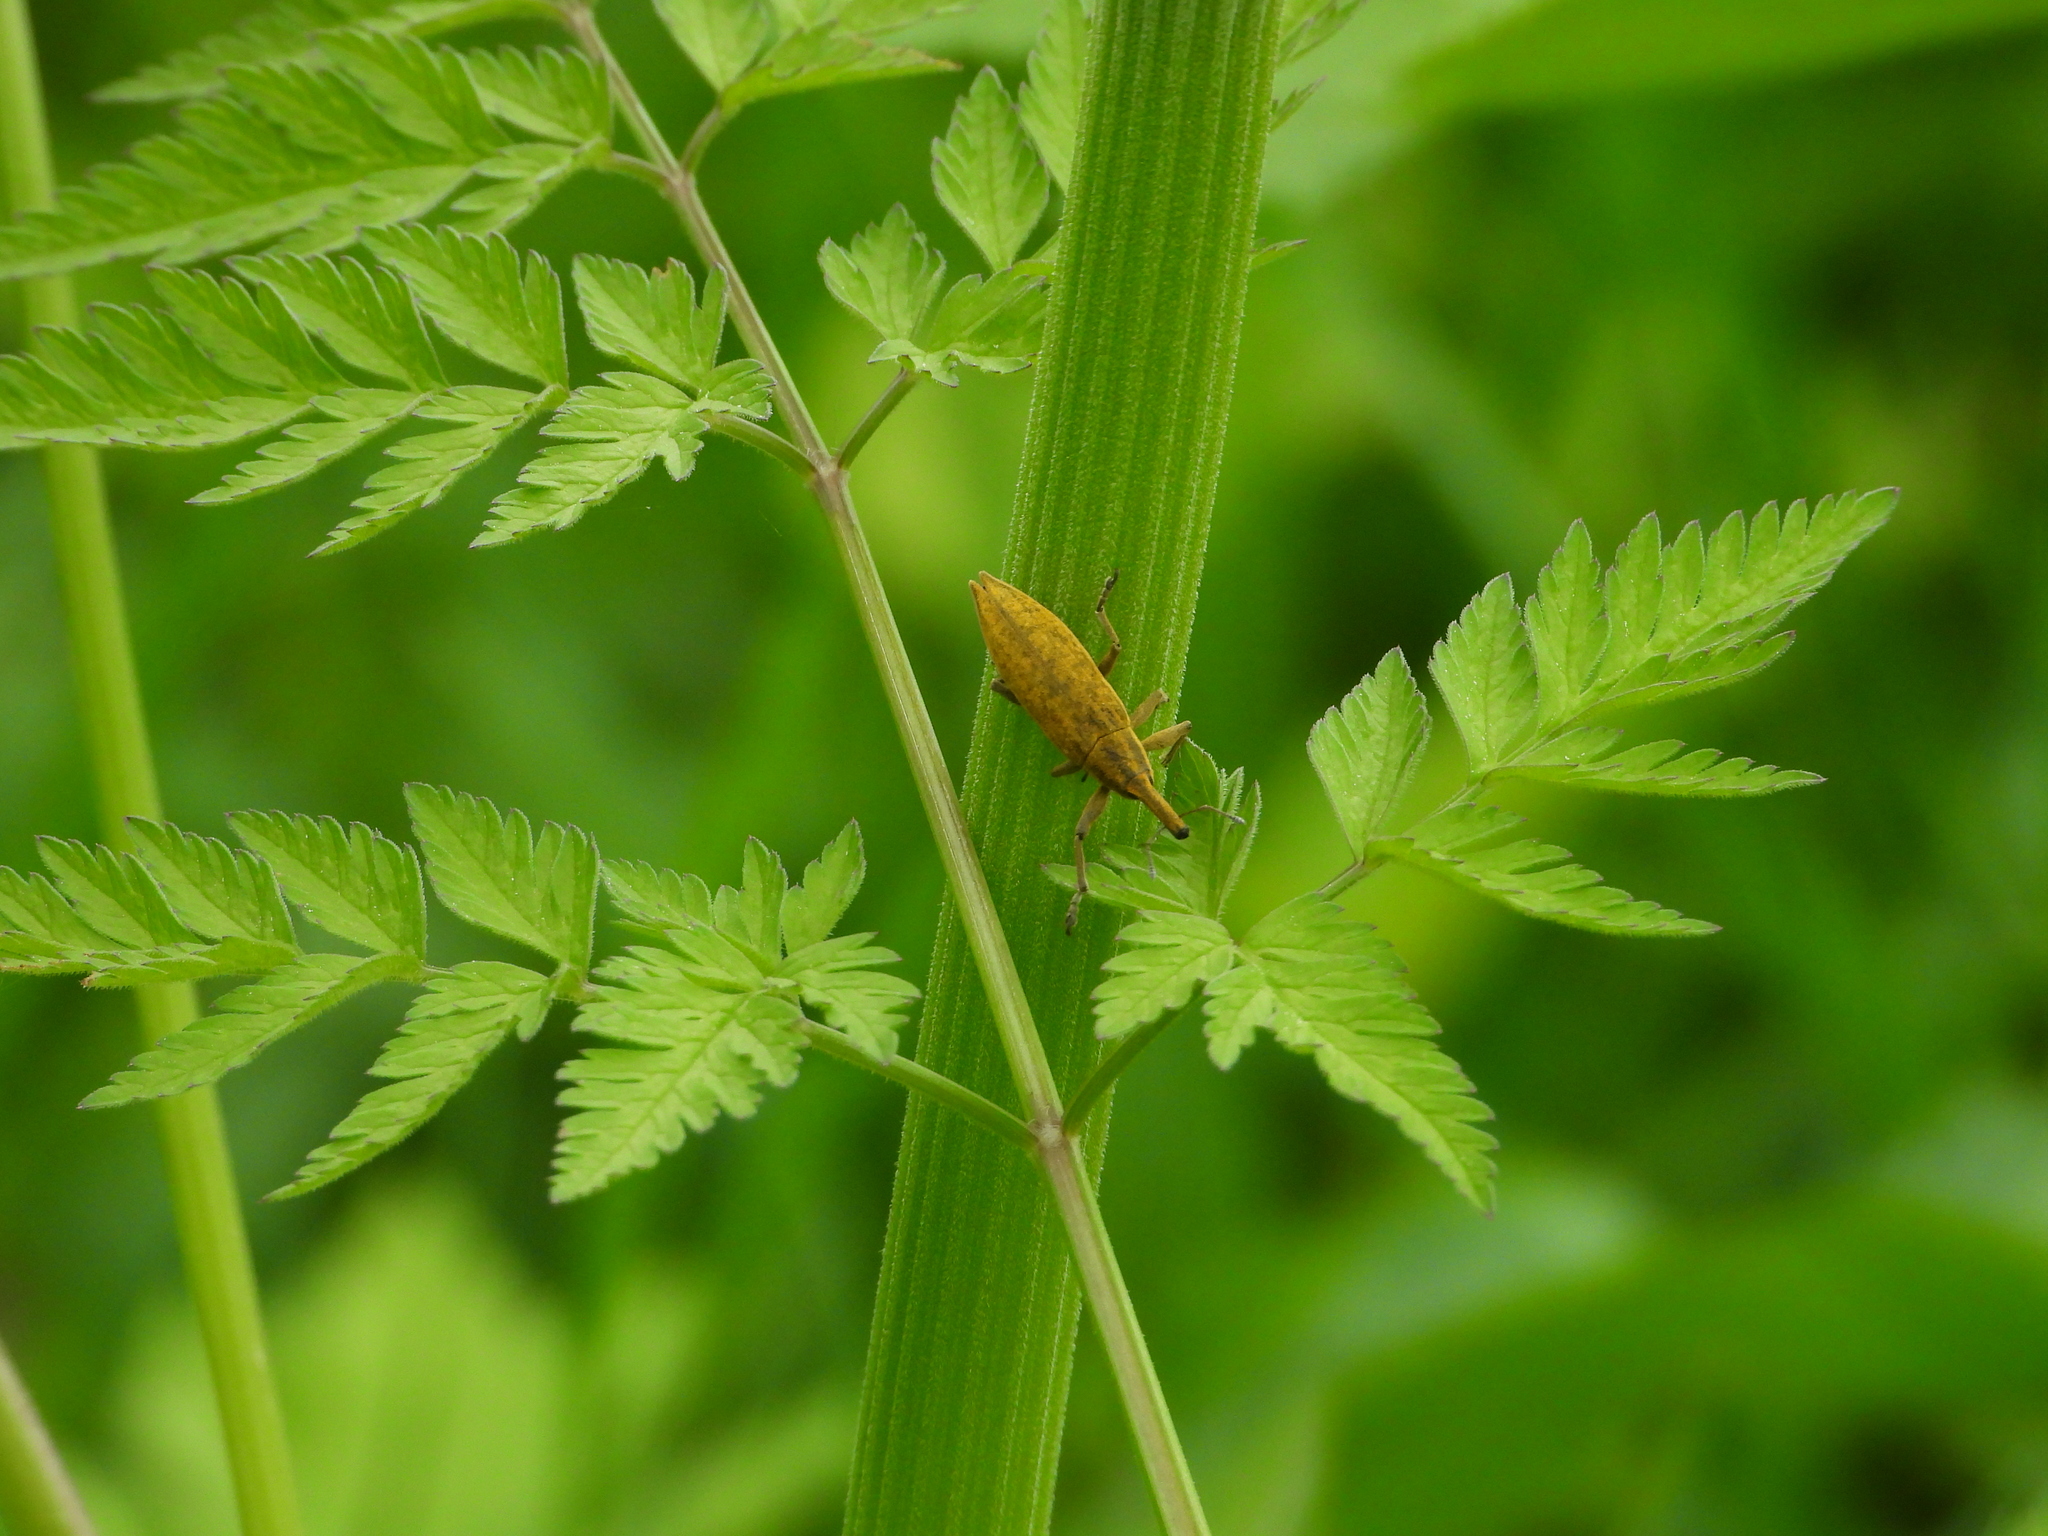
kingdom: Animalia
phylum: Arthropoda
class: Insecta
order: Coleoptera
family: Curculionidae
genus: Lixus
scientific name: Lixus iridis
